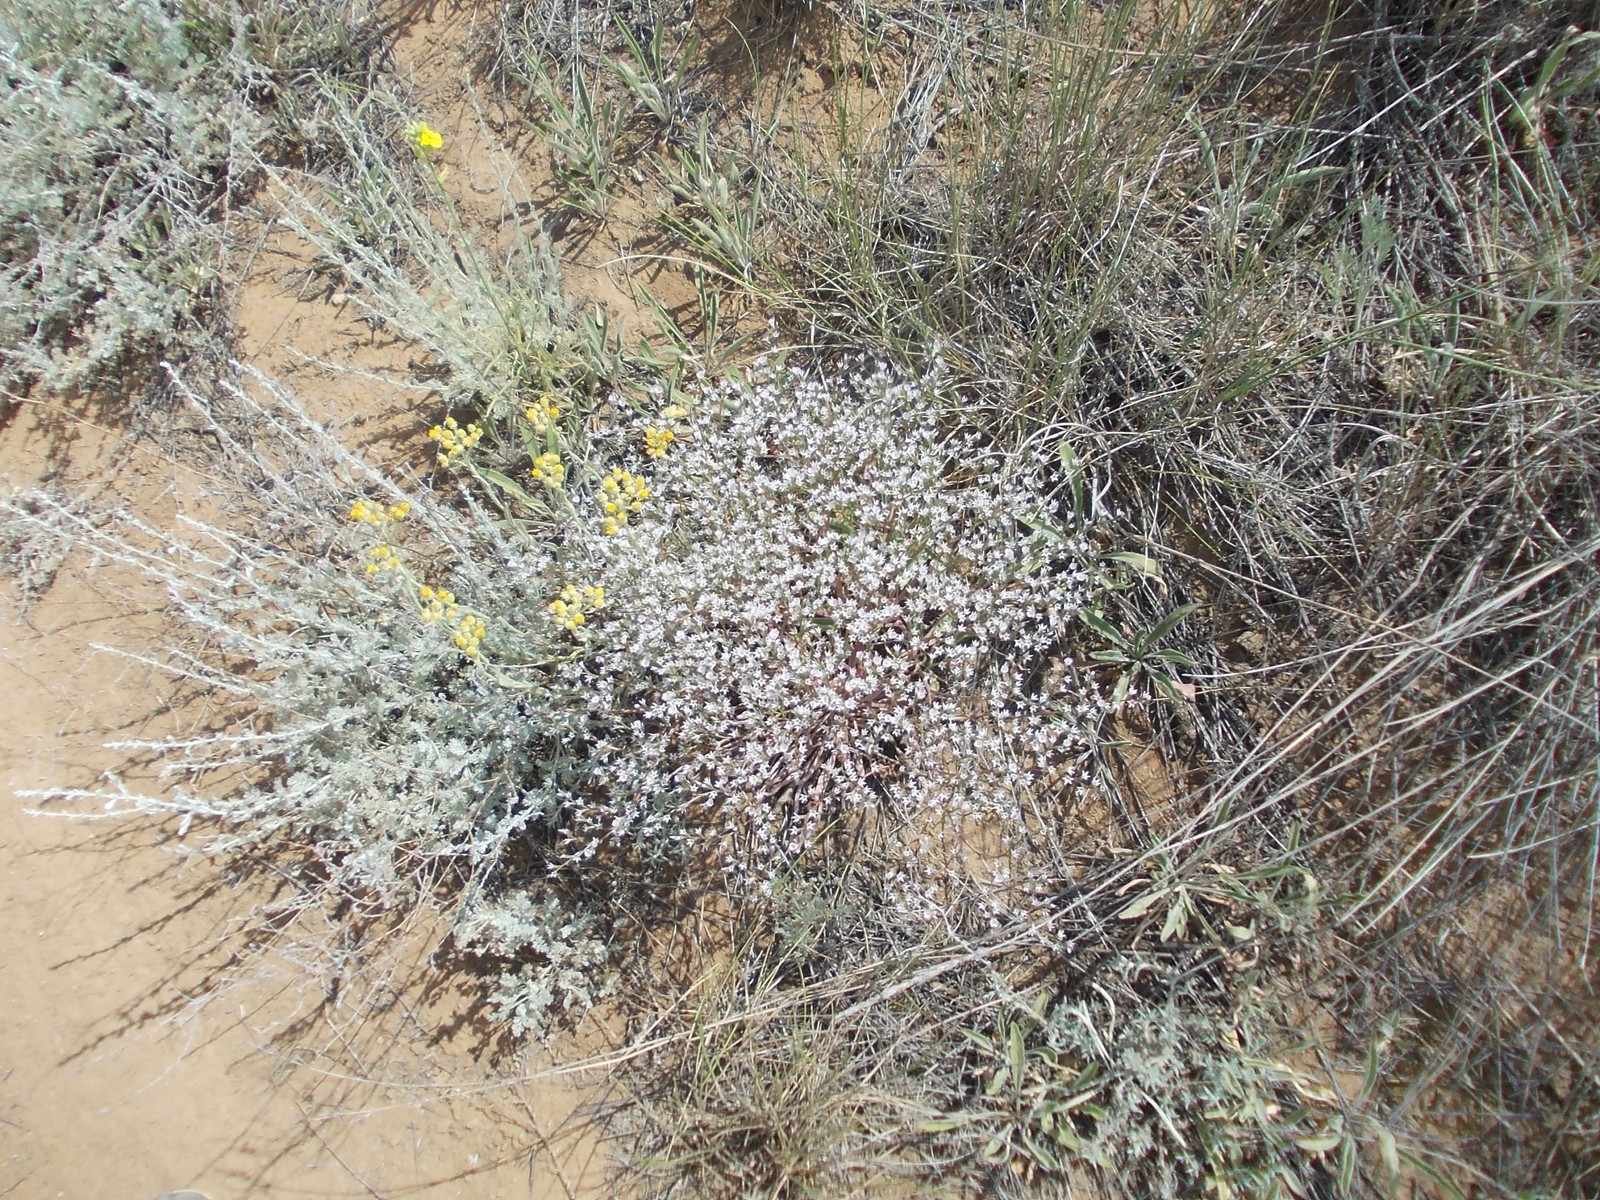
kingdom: Plantae
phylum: Tracheophyta
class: Magnoliopsida
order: Caryophyllales
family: Plumbaginaceae
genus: Goniolimon
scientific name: Goniolimon rubellum
